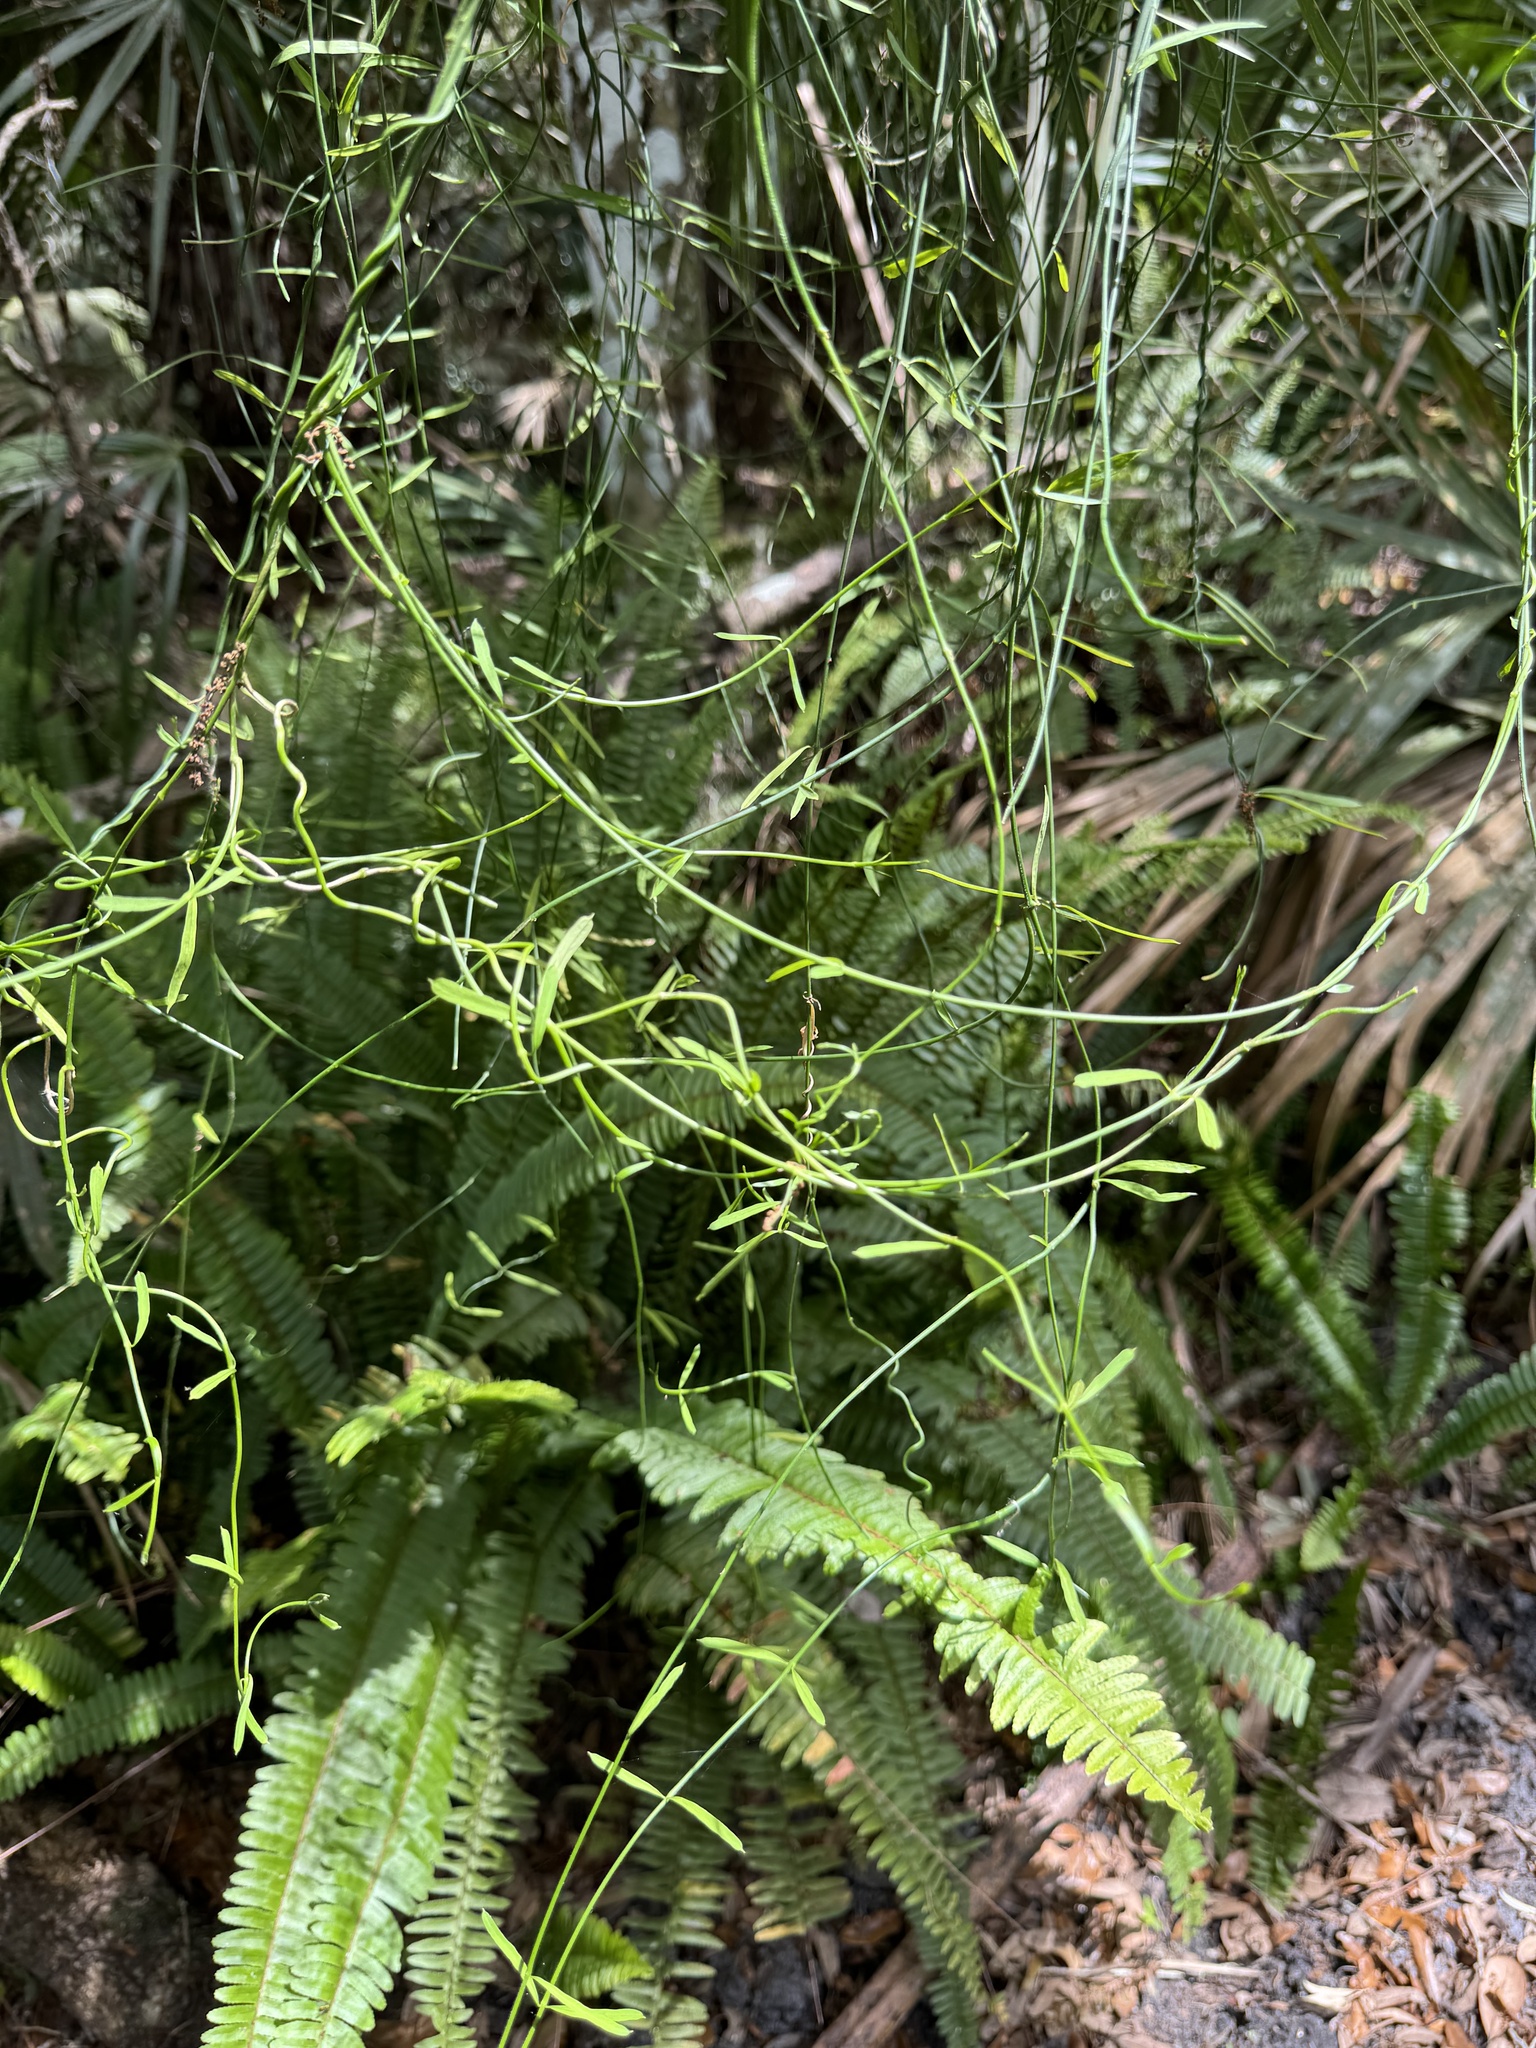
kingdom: Plantae
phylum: Tracheophyta
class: Magnoliopsida
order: Gentianales
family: Apocynaceae
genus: Orthosia
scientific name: Orthosia scoparia
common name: Leafless swallow-wort
